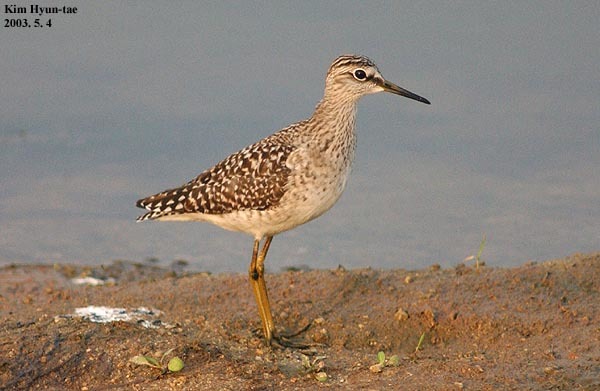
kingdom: Animalia
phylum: Chordata
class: Aves
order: Charadriiformes
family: Scolopacidae
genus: Tringa
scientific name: Tringa glareola
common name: Wood sandpiper
